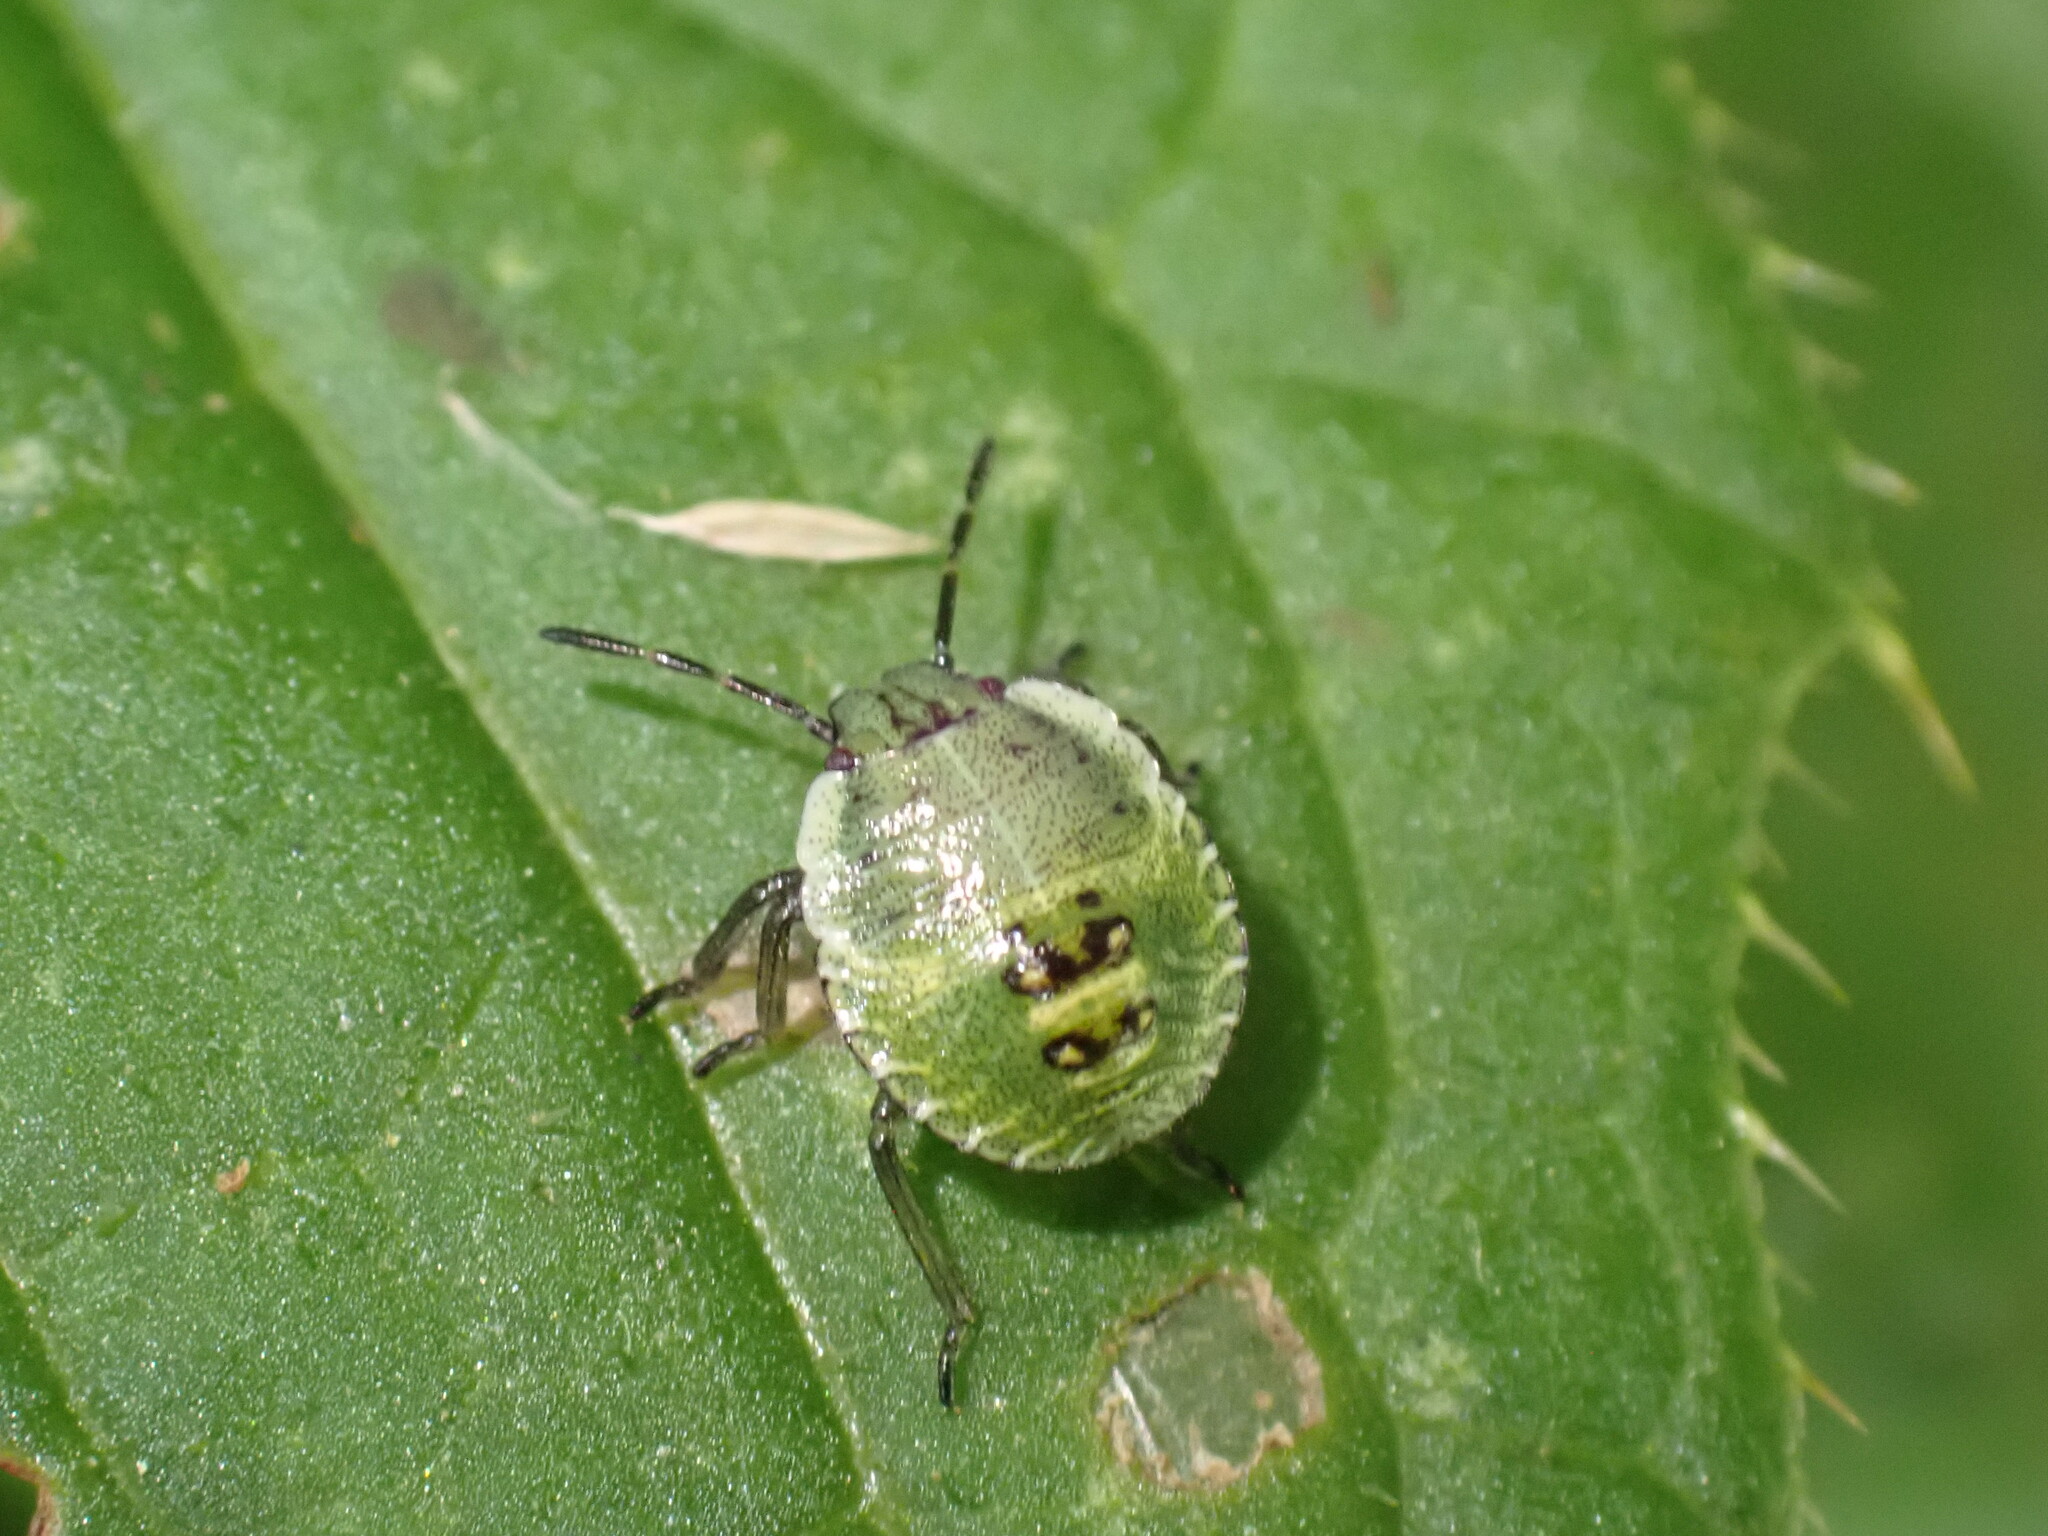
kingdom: Animalia
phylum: Arthropoda
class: Insecta
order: Hemiptera
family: Pentatomidae
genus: Palomena
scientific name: Palomena prasina
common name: Green shieldbug
